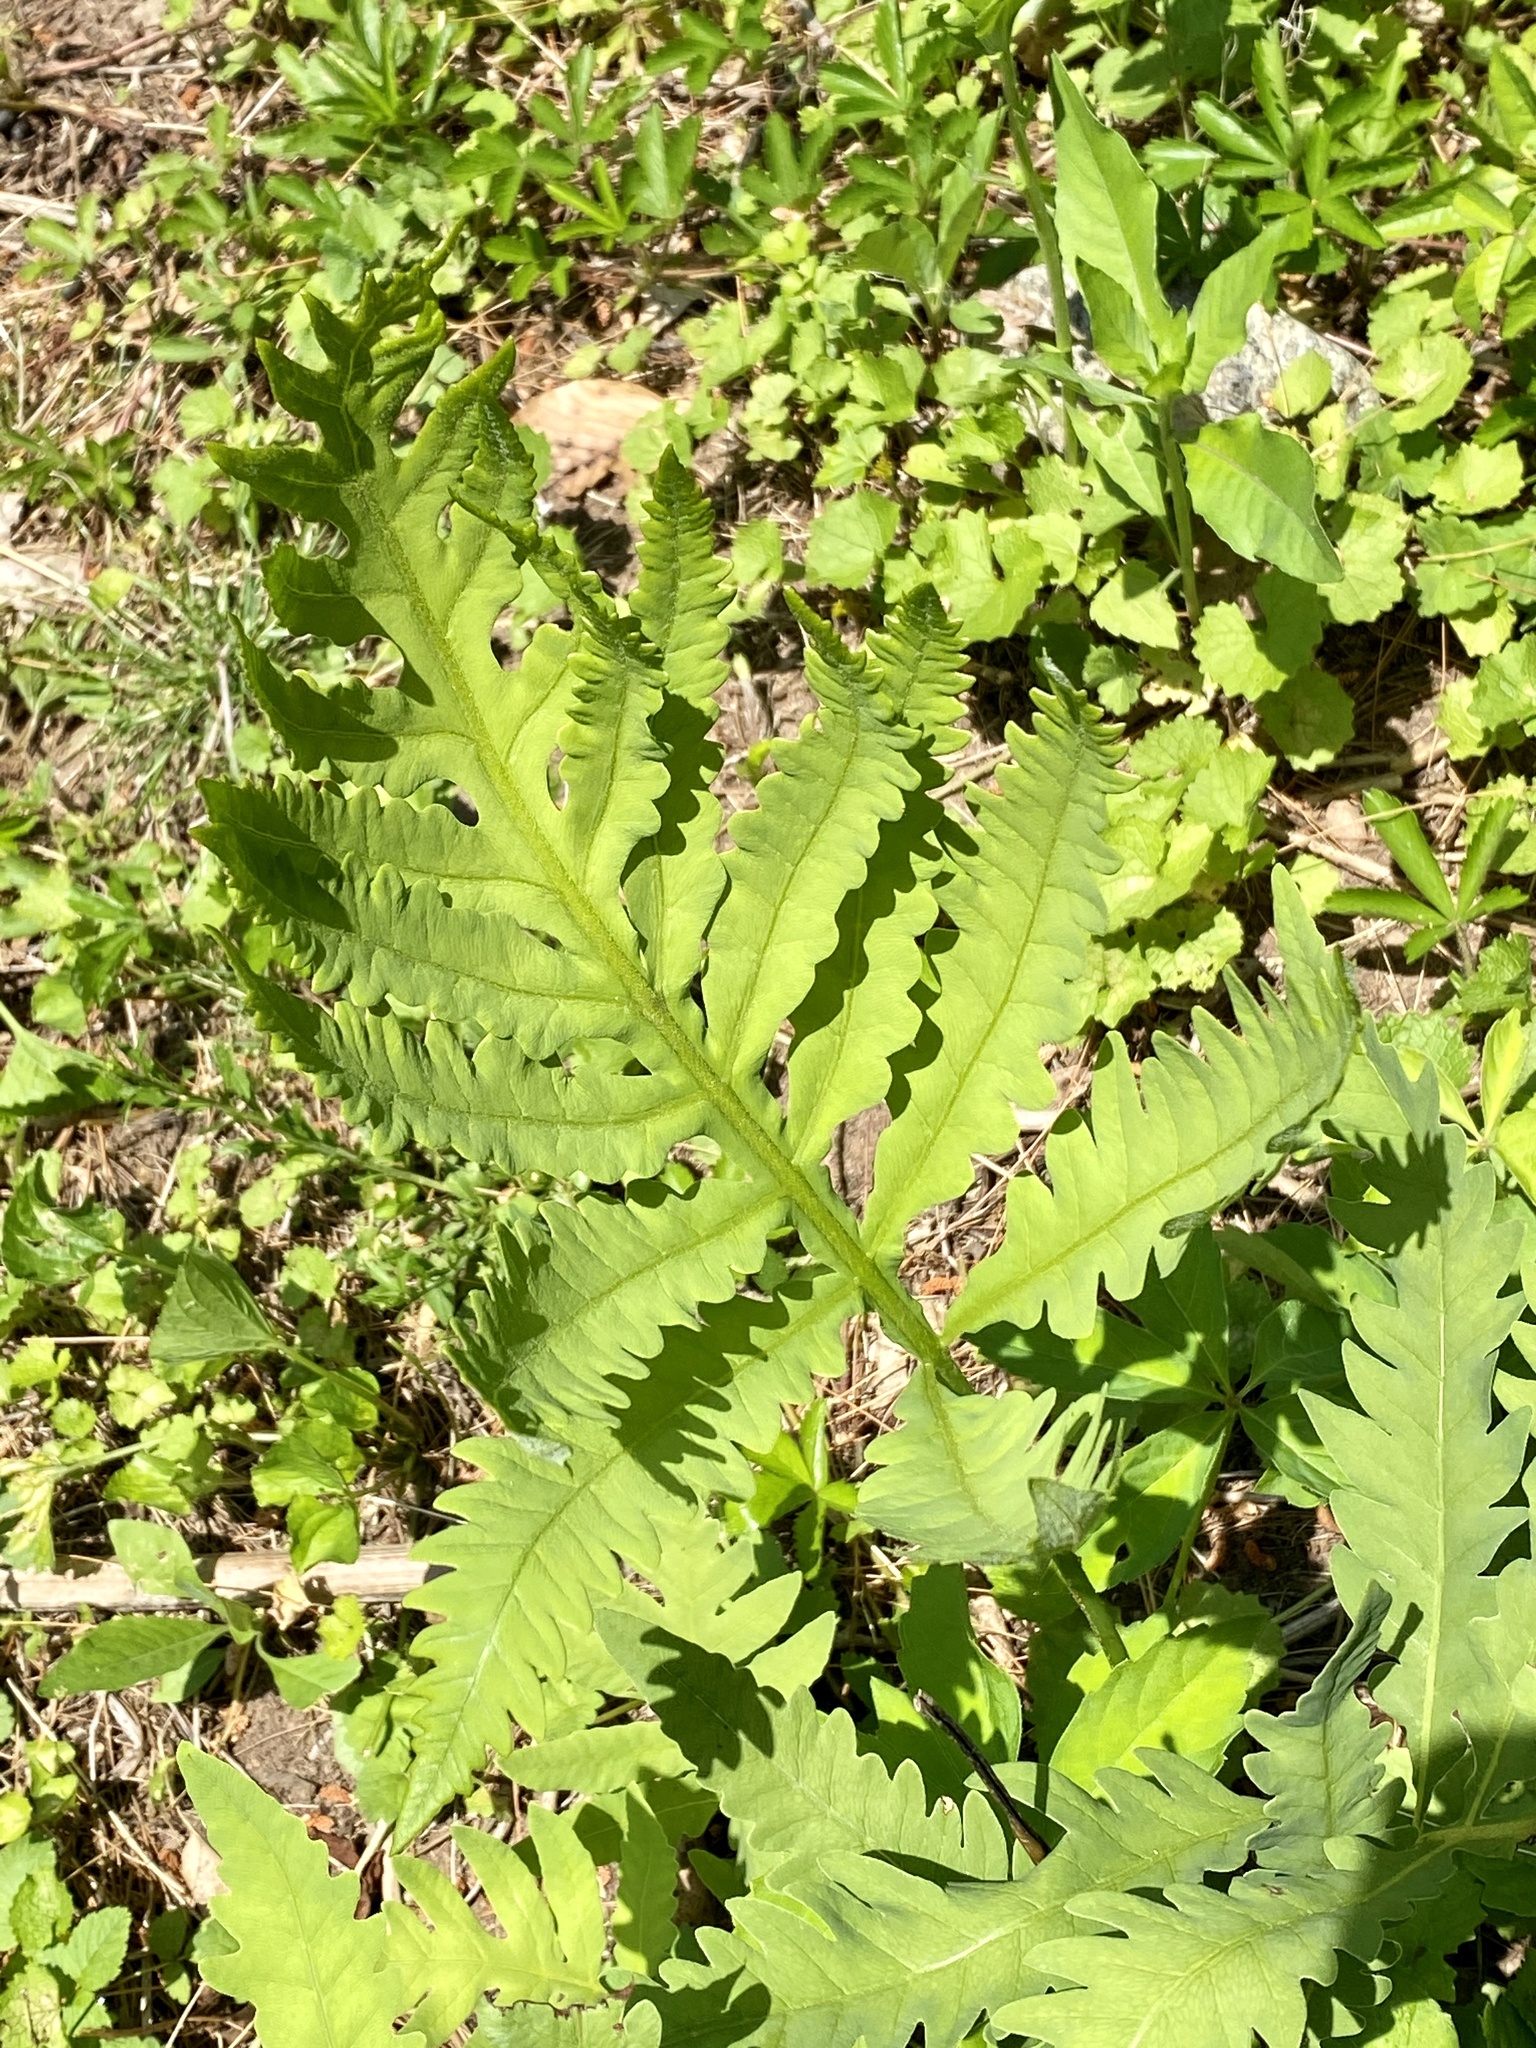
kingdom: Plantae
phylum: Tracheophyta
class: Polypodiopsida
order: Polypodiales
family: Onocleaceae
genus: Onoclea
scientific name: Onoclea sensibilis
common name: Sensitive fern
